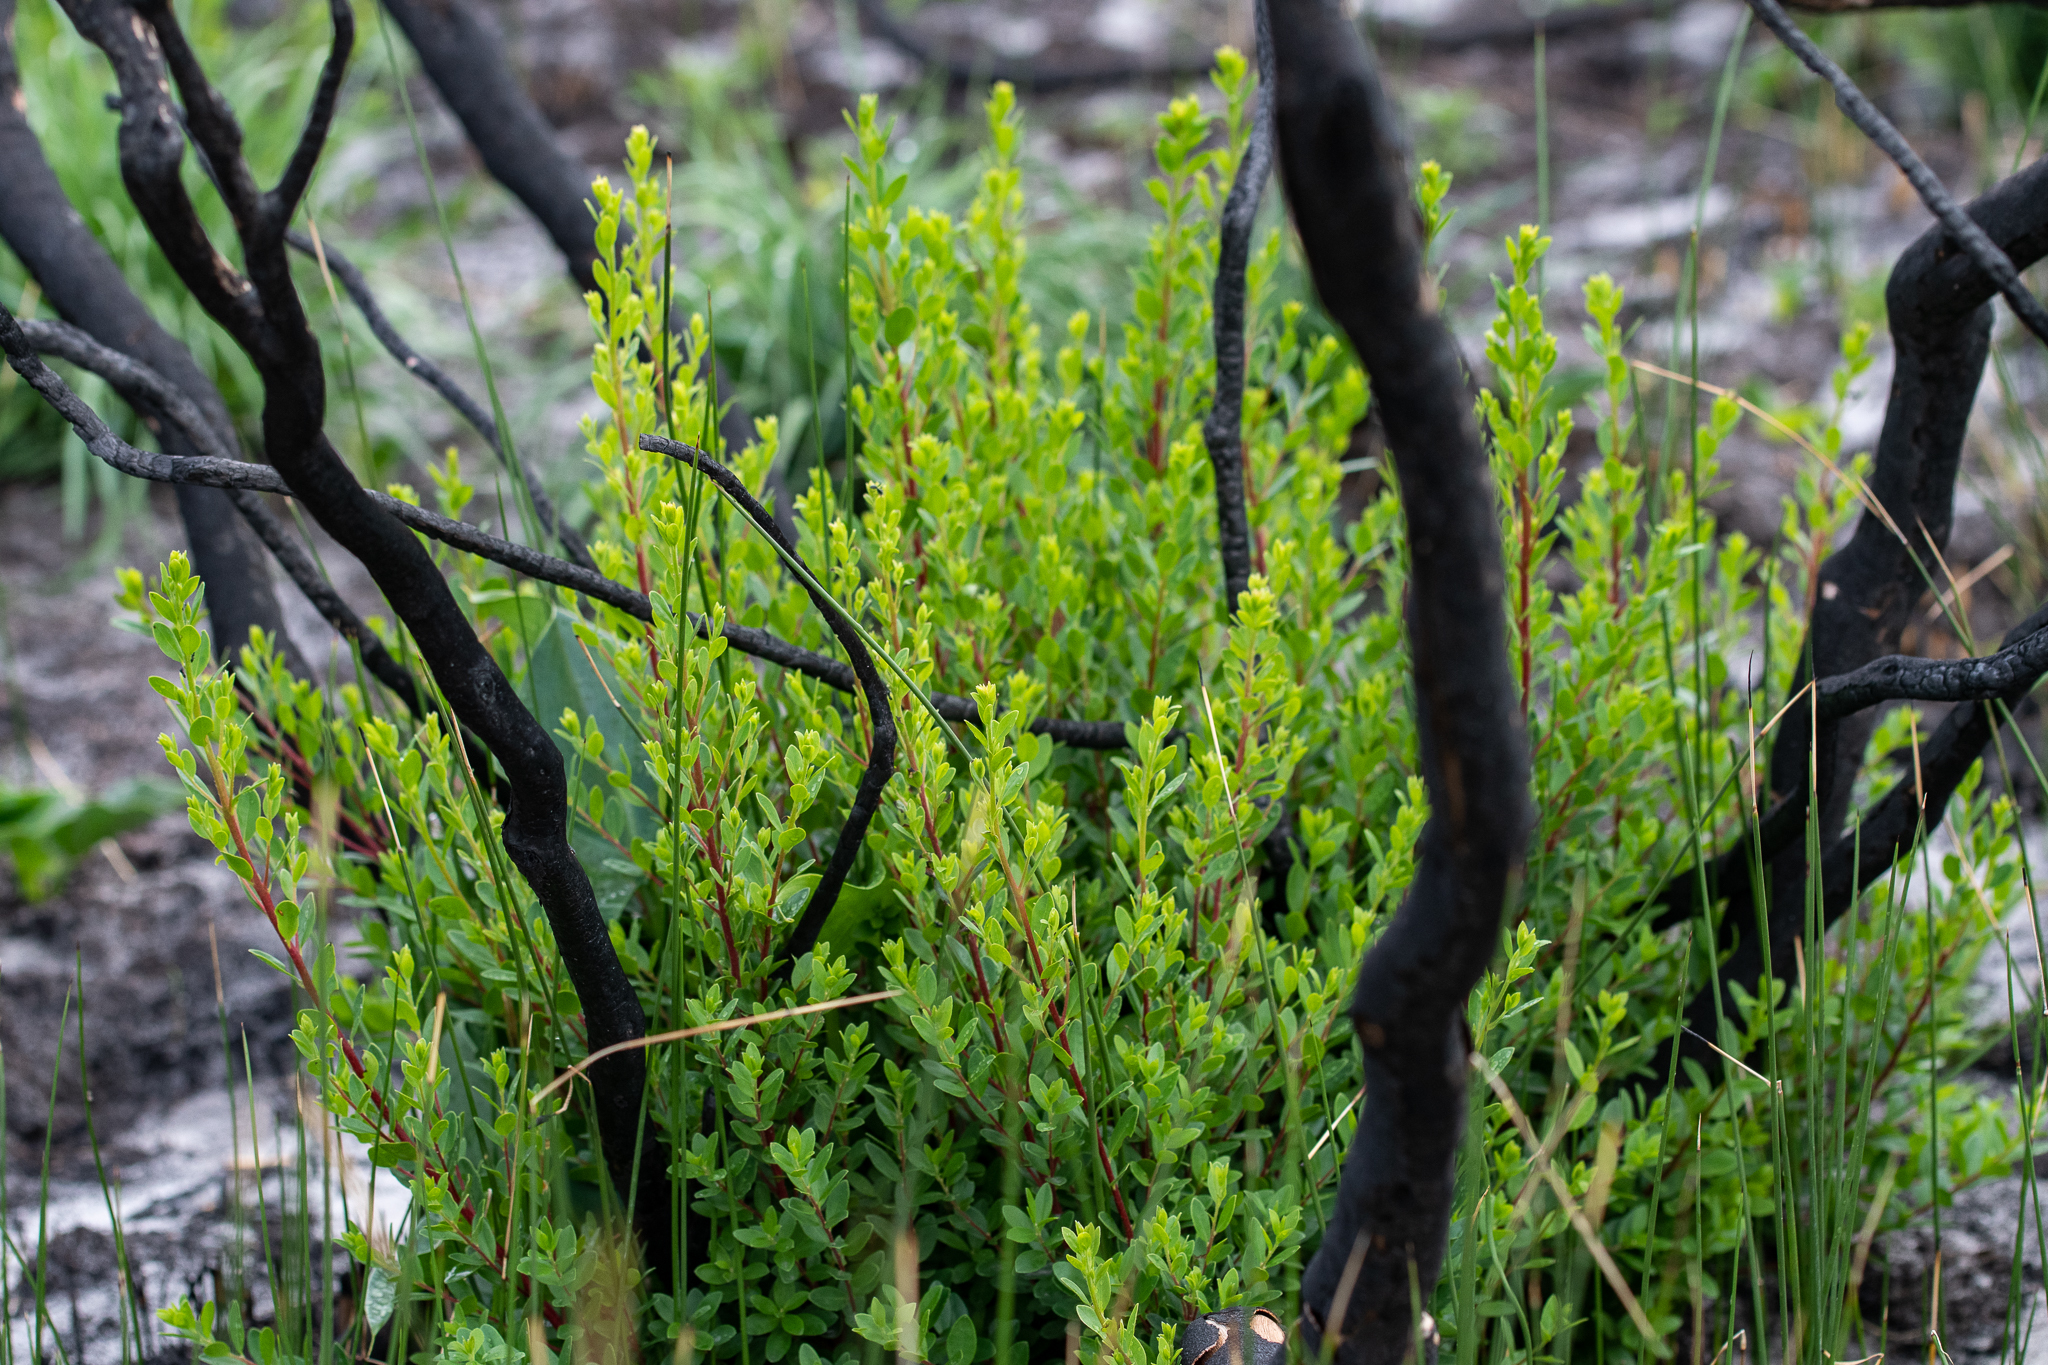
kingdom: Plantae
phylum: Tracheophyta
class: Magnoliopsida
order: Ericales
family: Ebenaceae
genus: Diospyros
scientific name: Diospyros glabra
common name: Fynbos star apple
